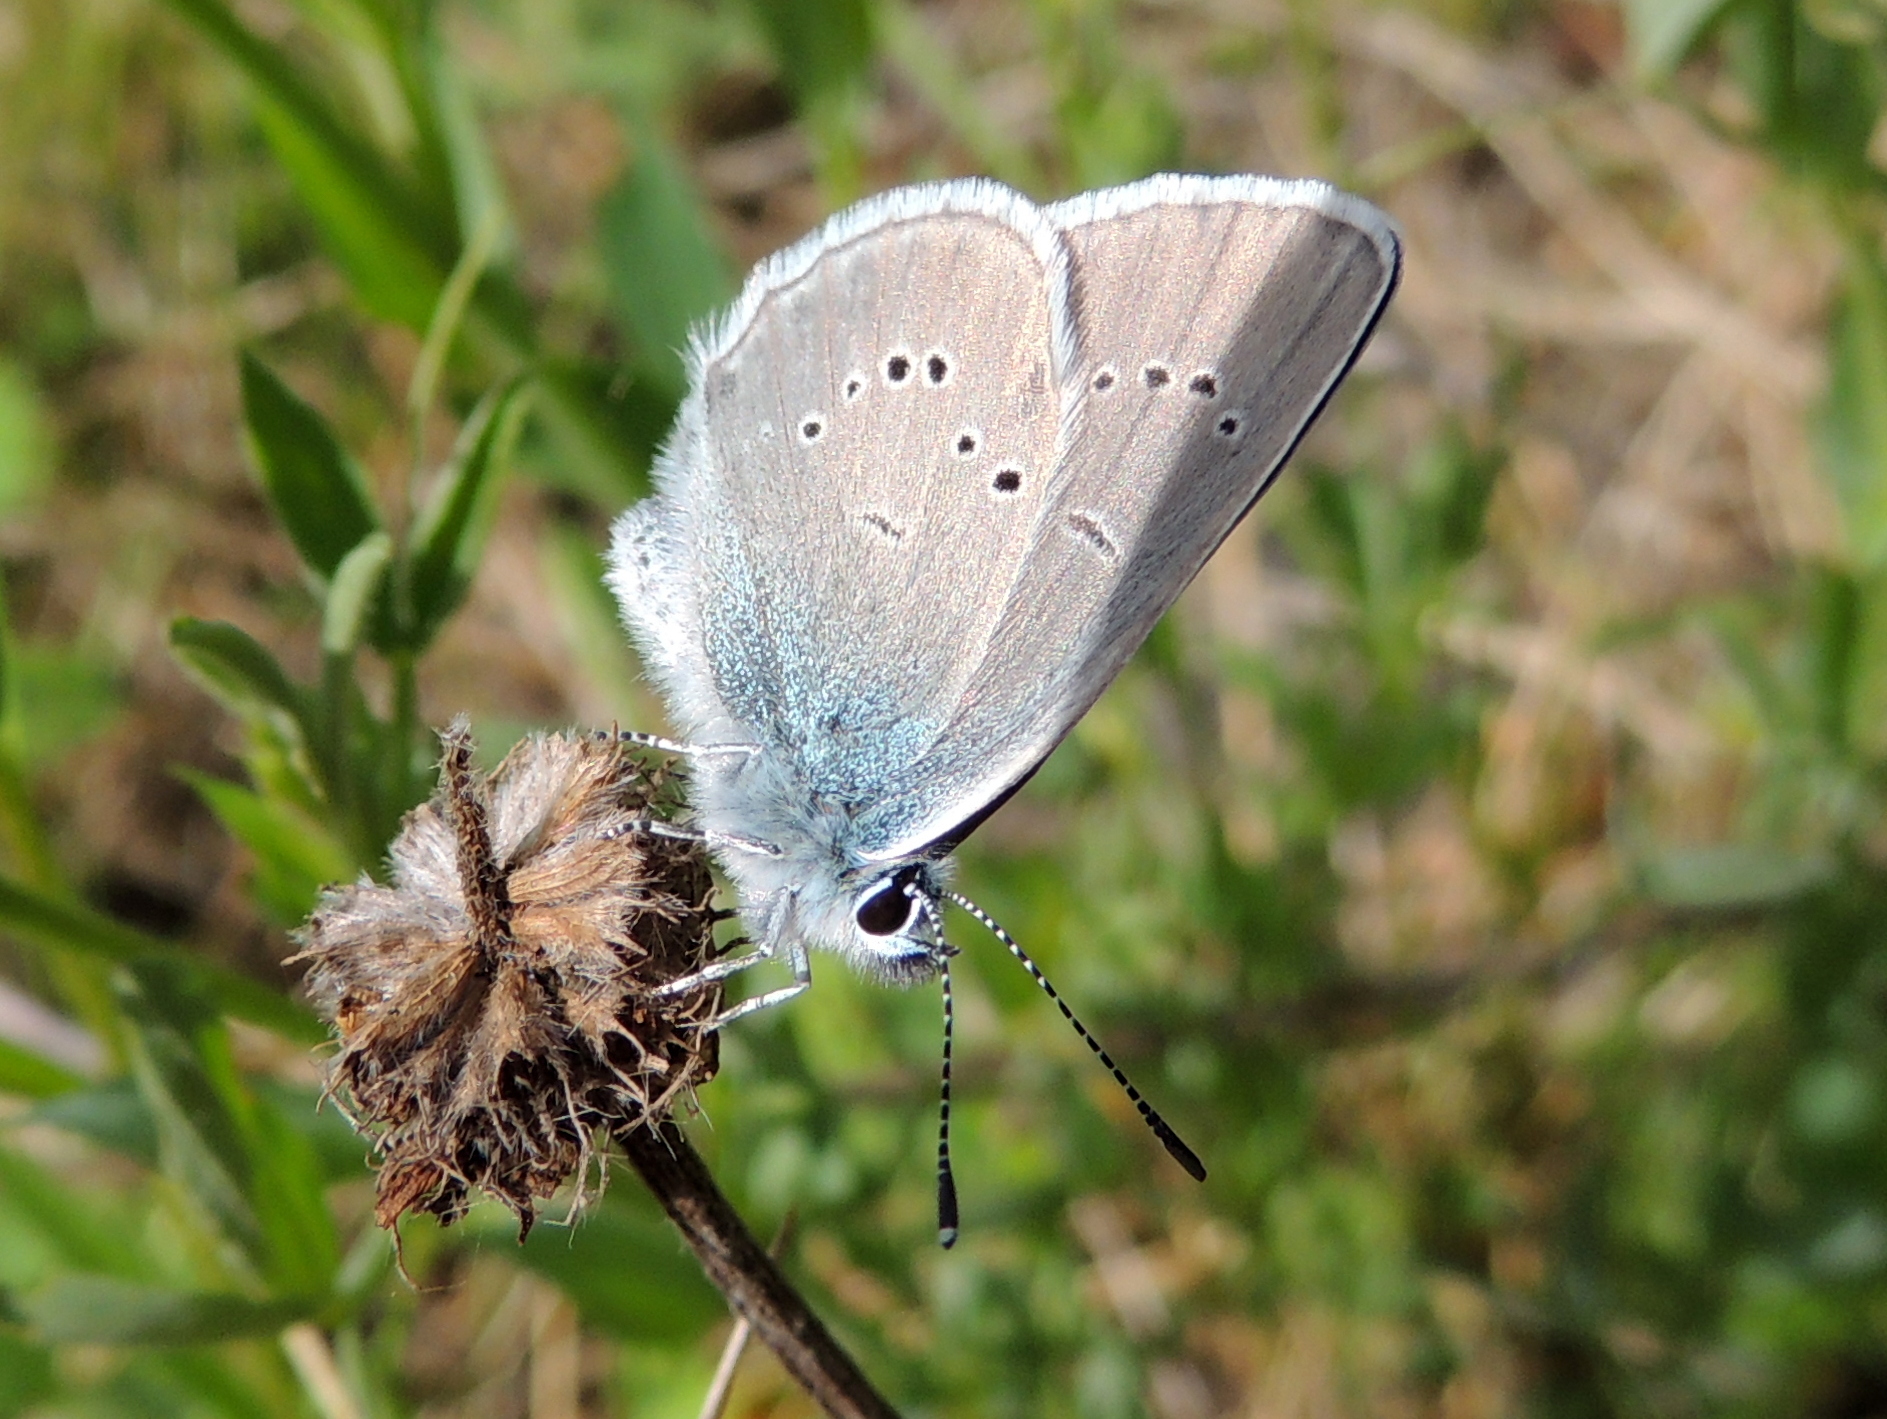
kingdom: Animalia
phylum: Arthropoda
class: Insecta
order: Lepidoptera
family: Lycaenidae
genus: Cyaniris
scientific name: Cyaniris semiargus
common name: Mazarine blue
